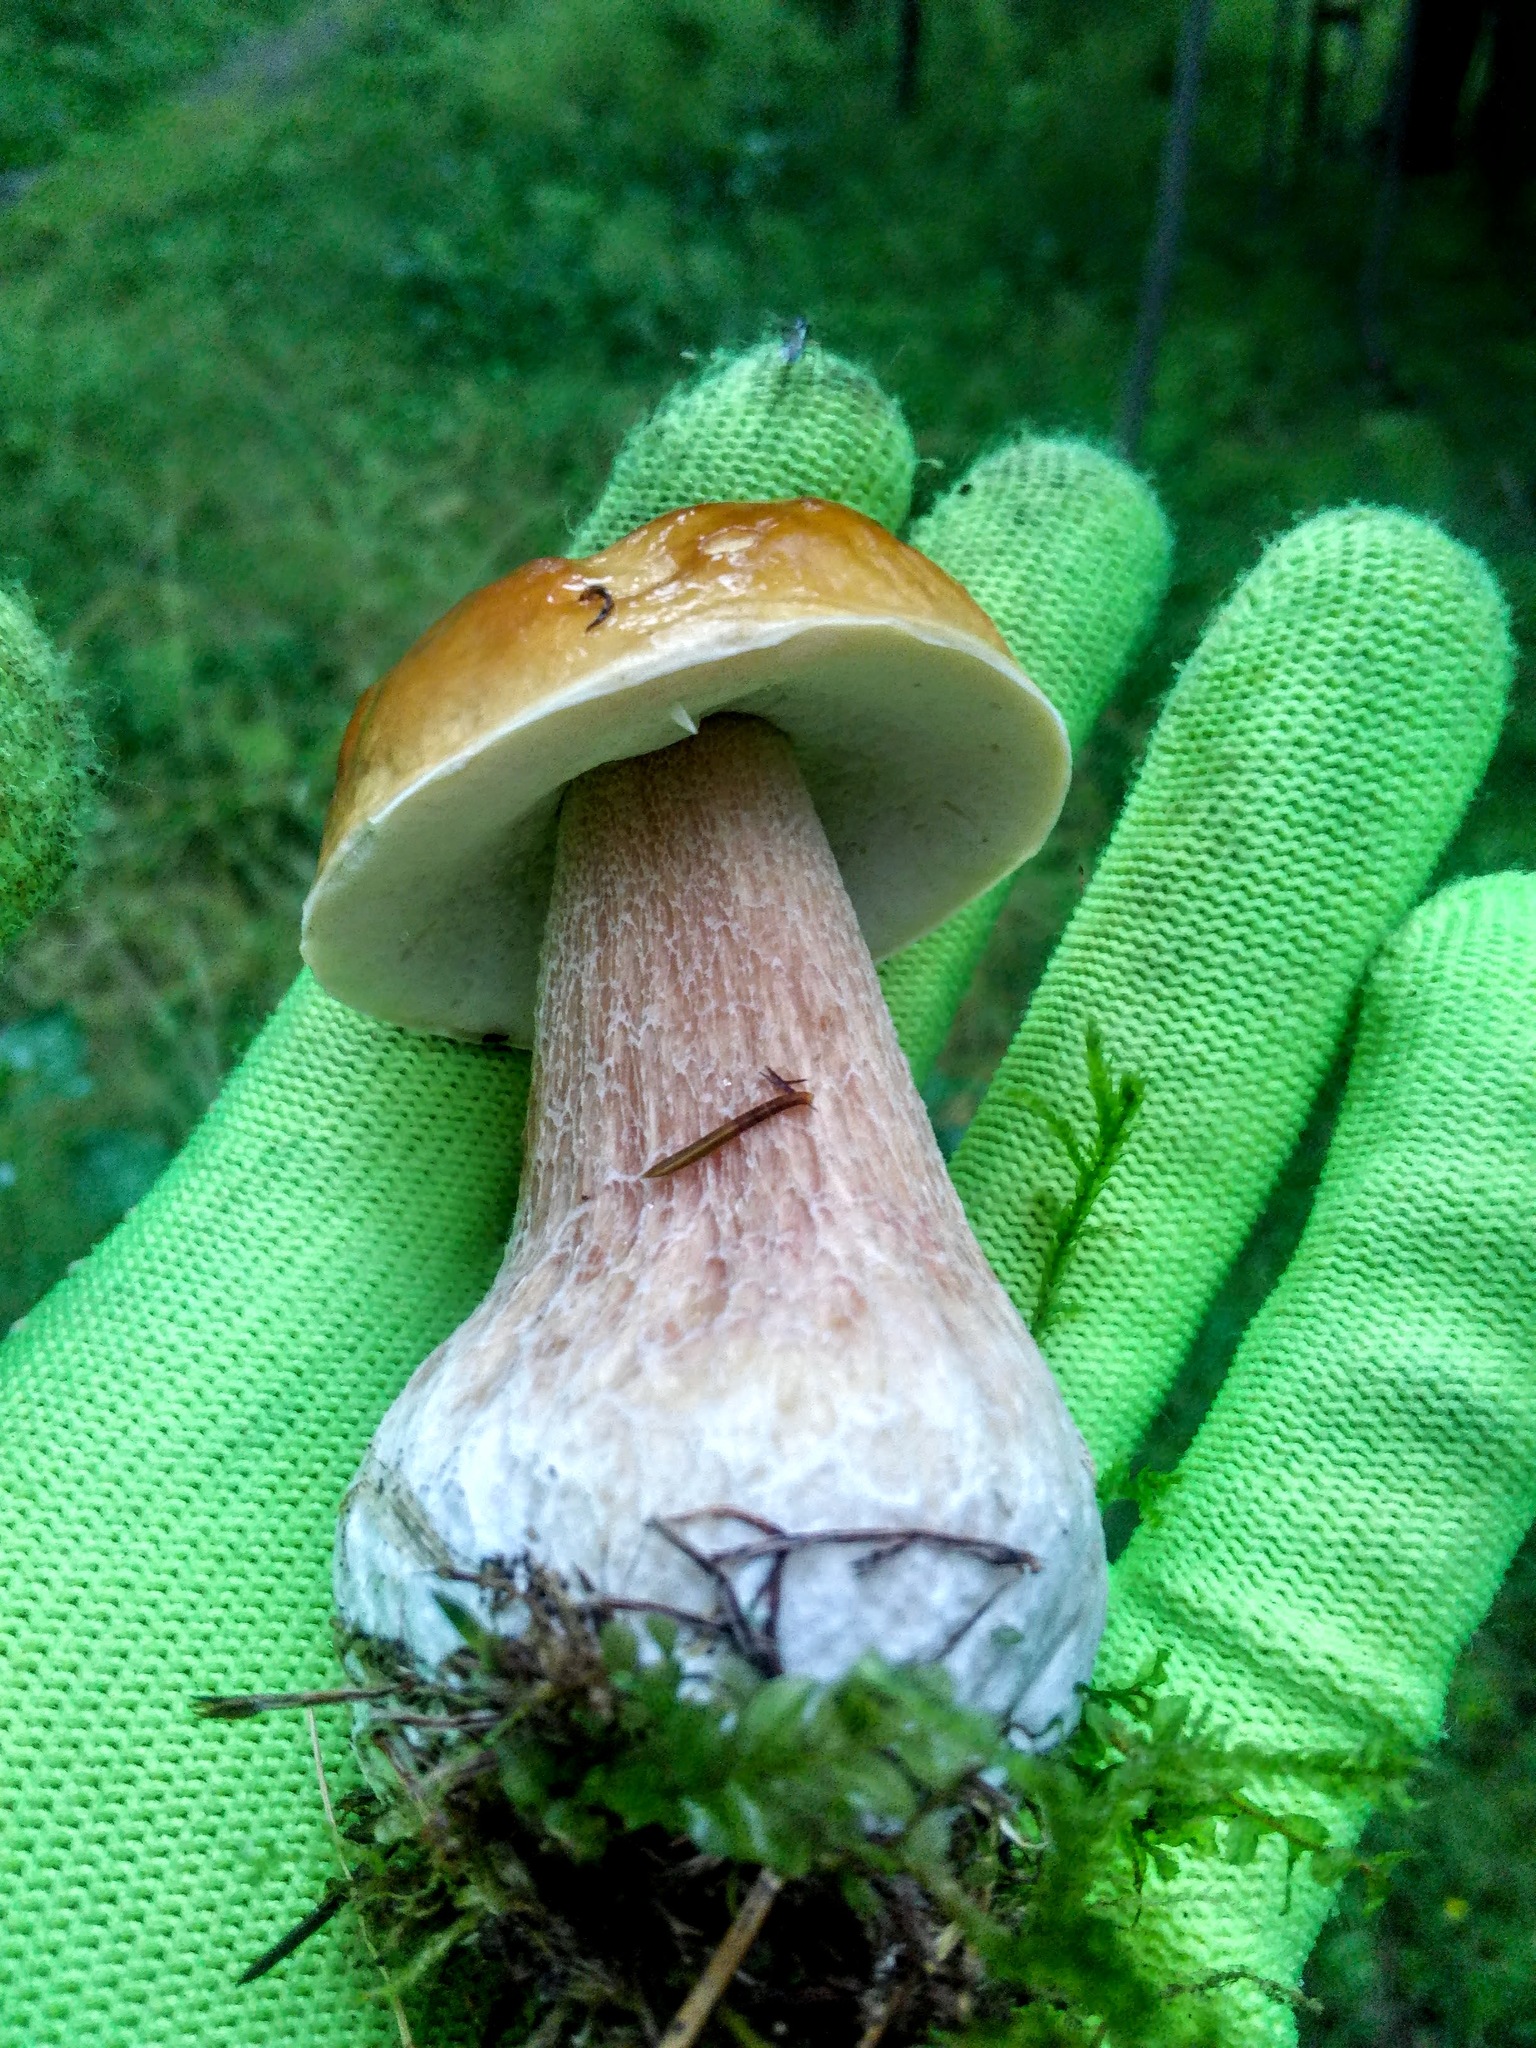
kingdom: Fungi
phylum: Basidiomycota
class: Agaricomycetes
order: Boletales
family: Boletaceae
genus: Boletus
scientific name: Boletus edulis
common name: Cep
